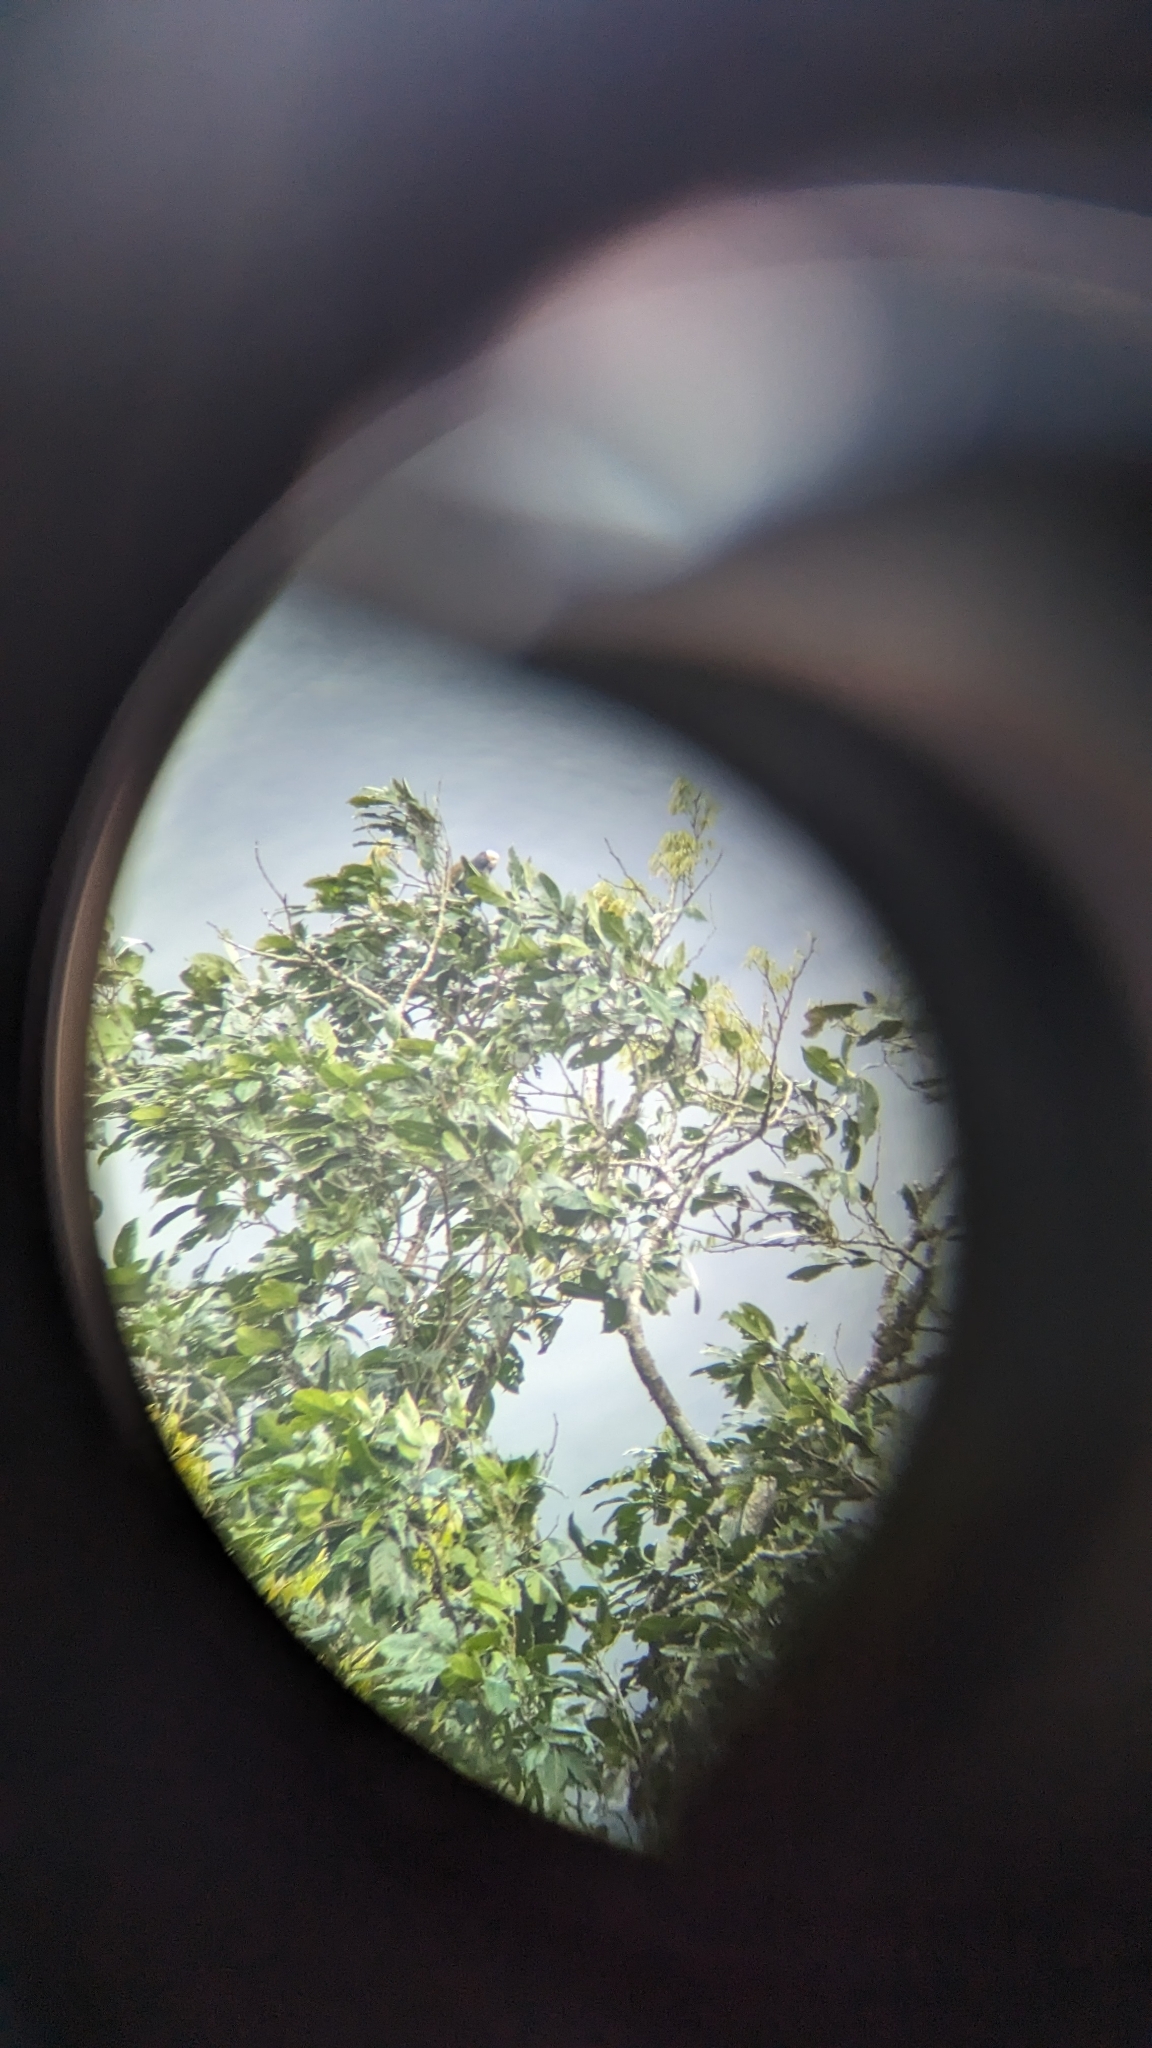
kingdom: Animalia
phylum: Chordata
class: Aves
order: Psittaciformes
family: Psittacidae
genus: Pionus
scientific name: Pionus senilis
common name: White-crowned parrot
